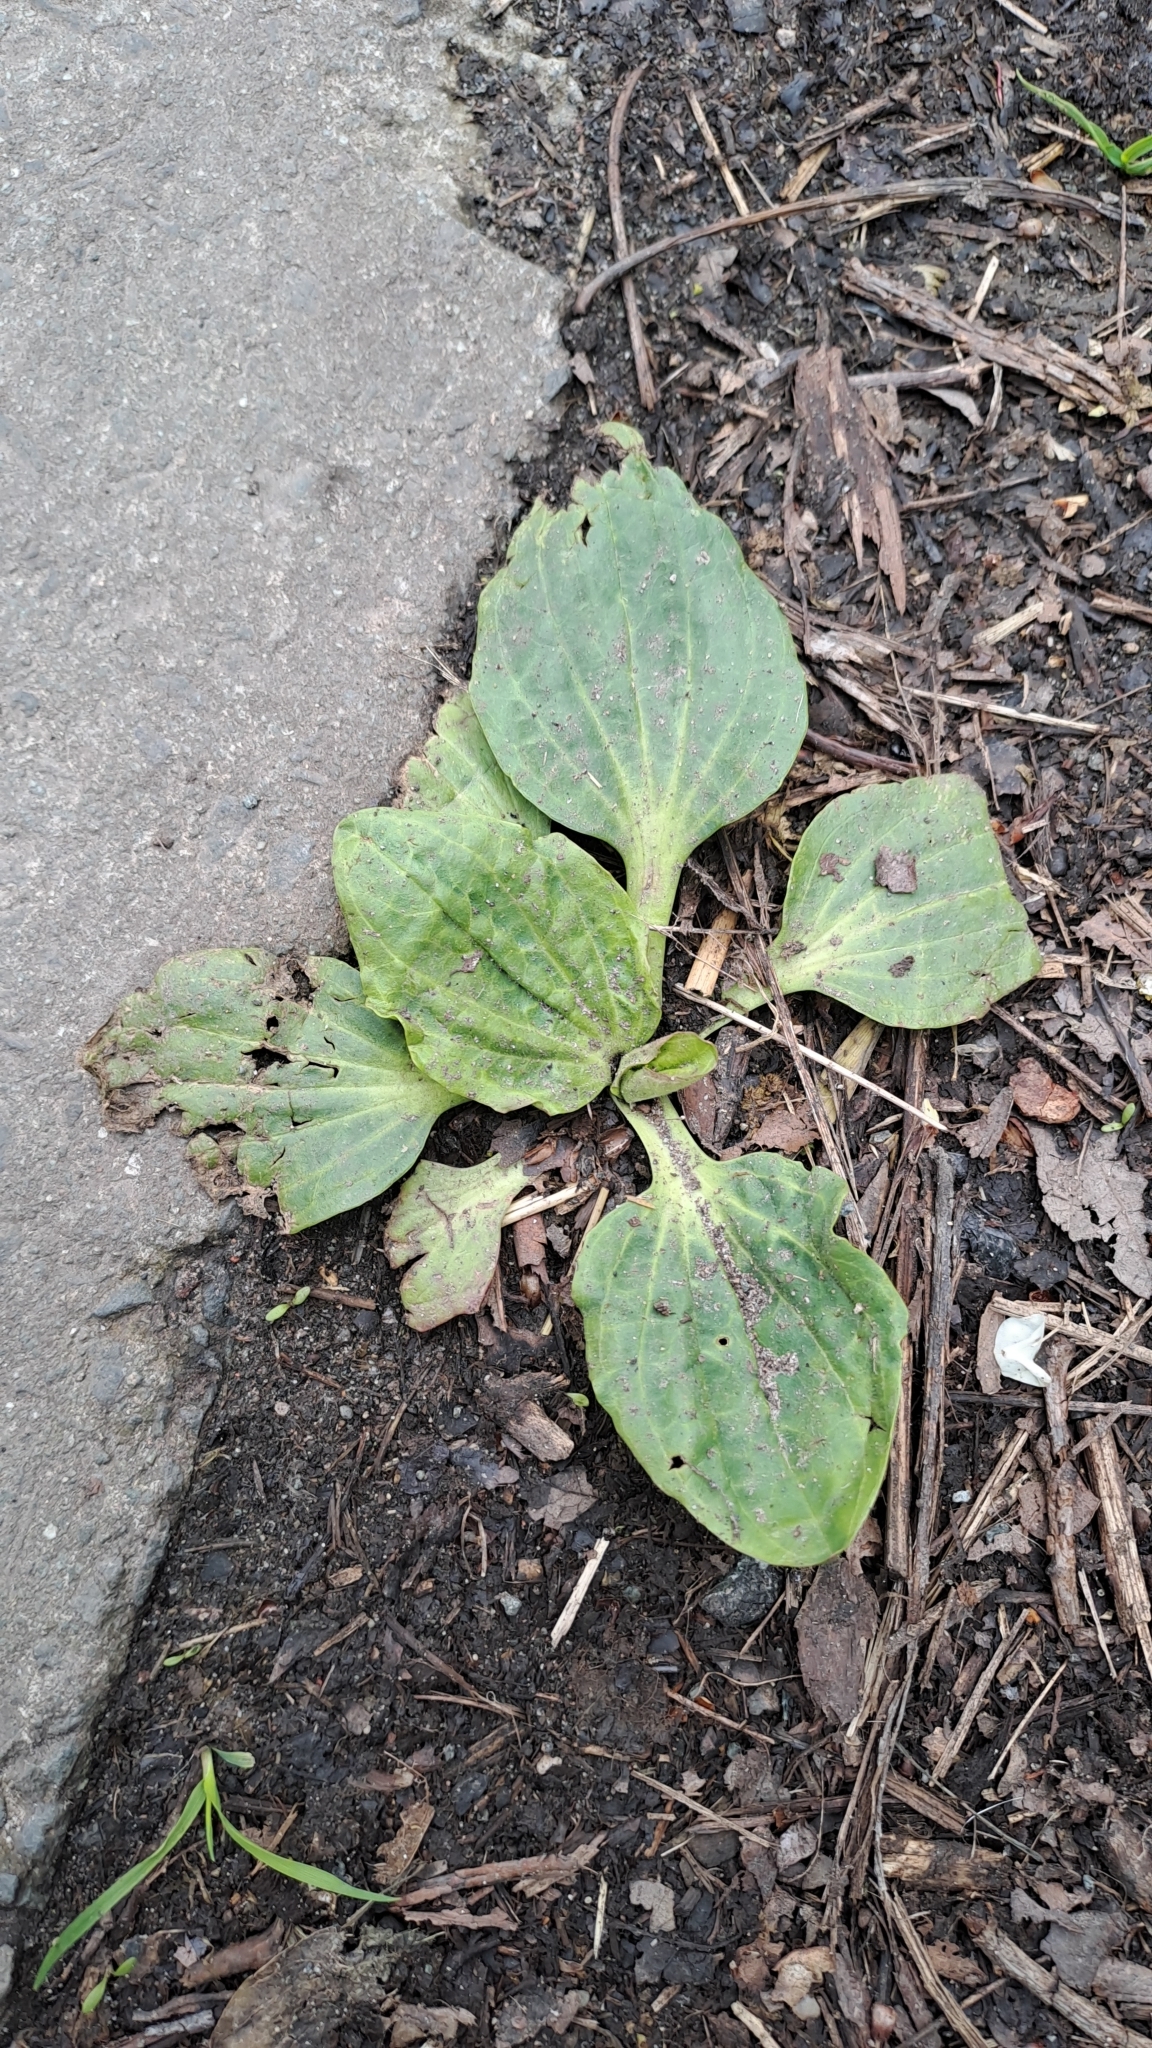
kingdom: Plantae
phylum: Tracheophyta
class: Magnoliopsida
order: Lamiales
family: Plantaginaceae
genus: Plantago
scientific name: Plantago major
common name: Common plantain
